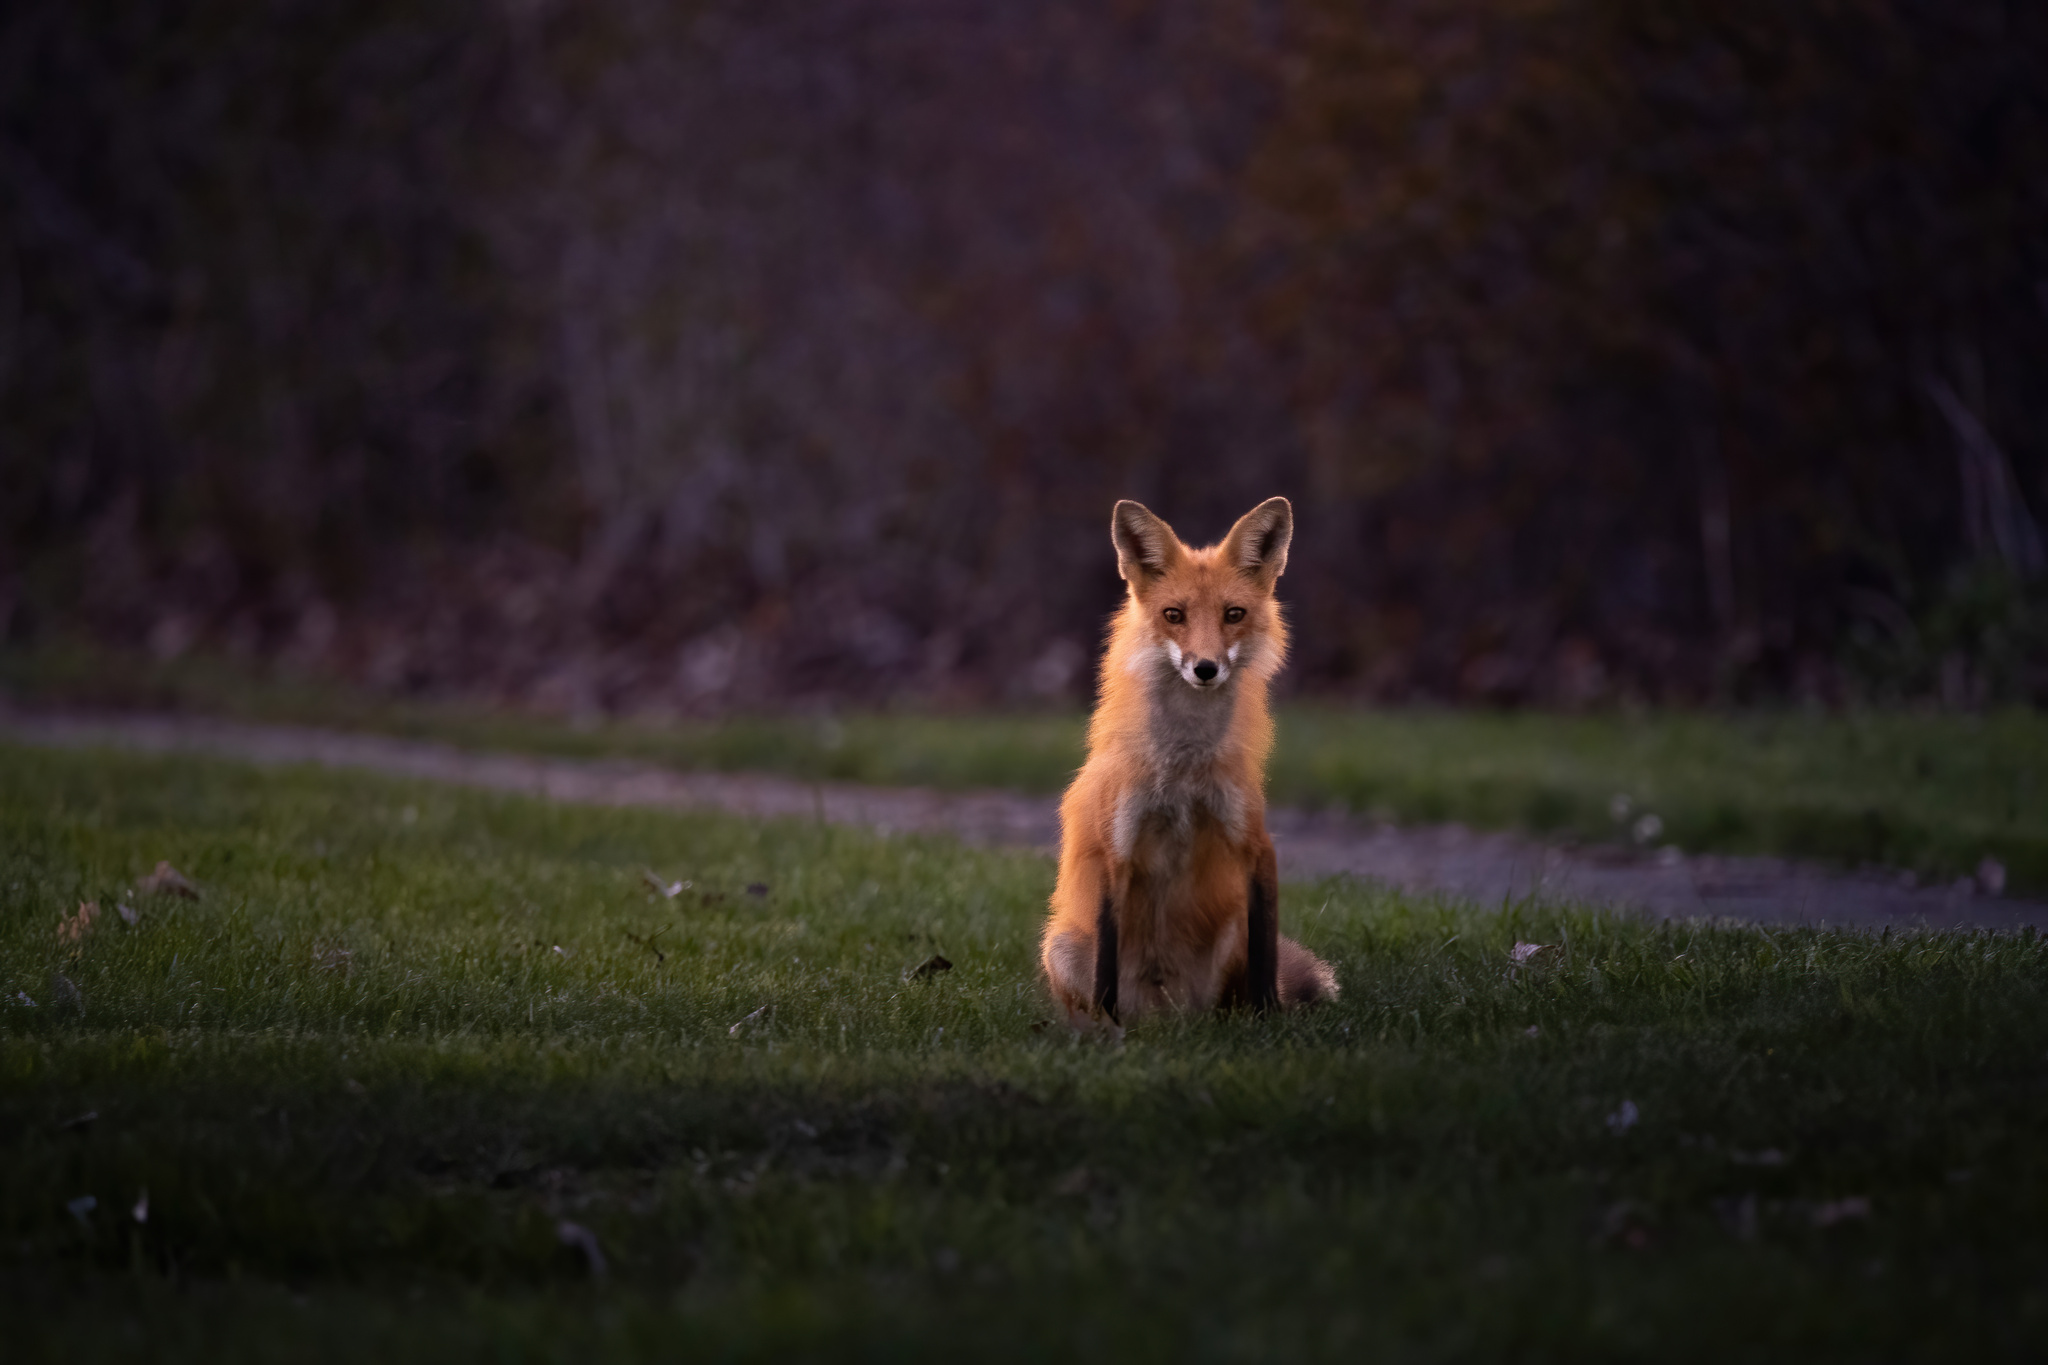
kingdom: Animalia
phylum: Chordata
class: Mammalia
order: Carnivora
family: Canidae
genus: Vulpes
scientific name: Vulpes vulpes
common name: Red fox
